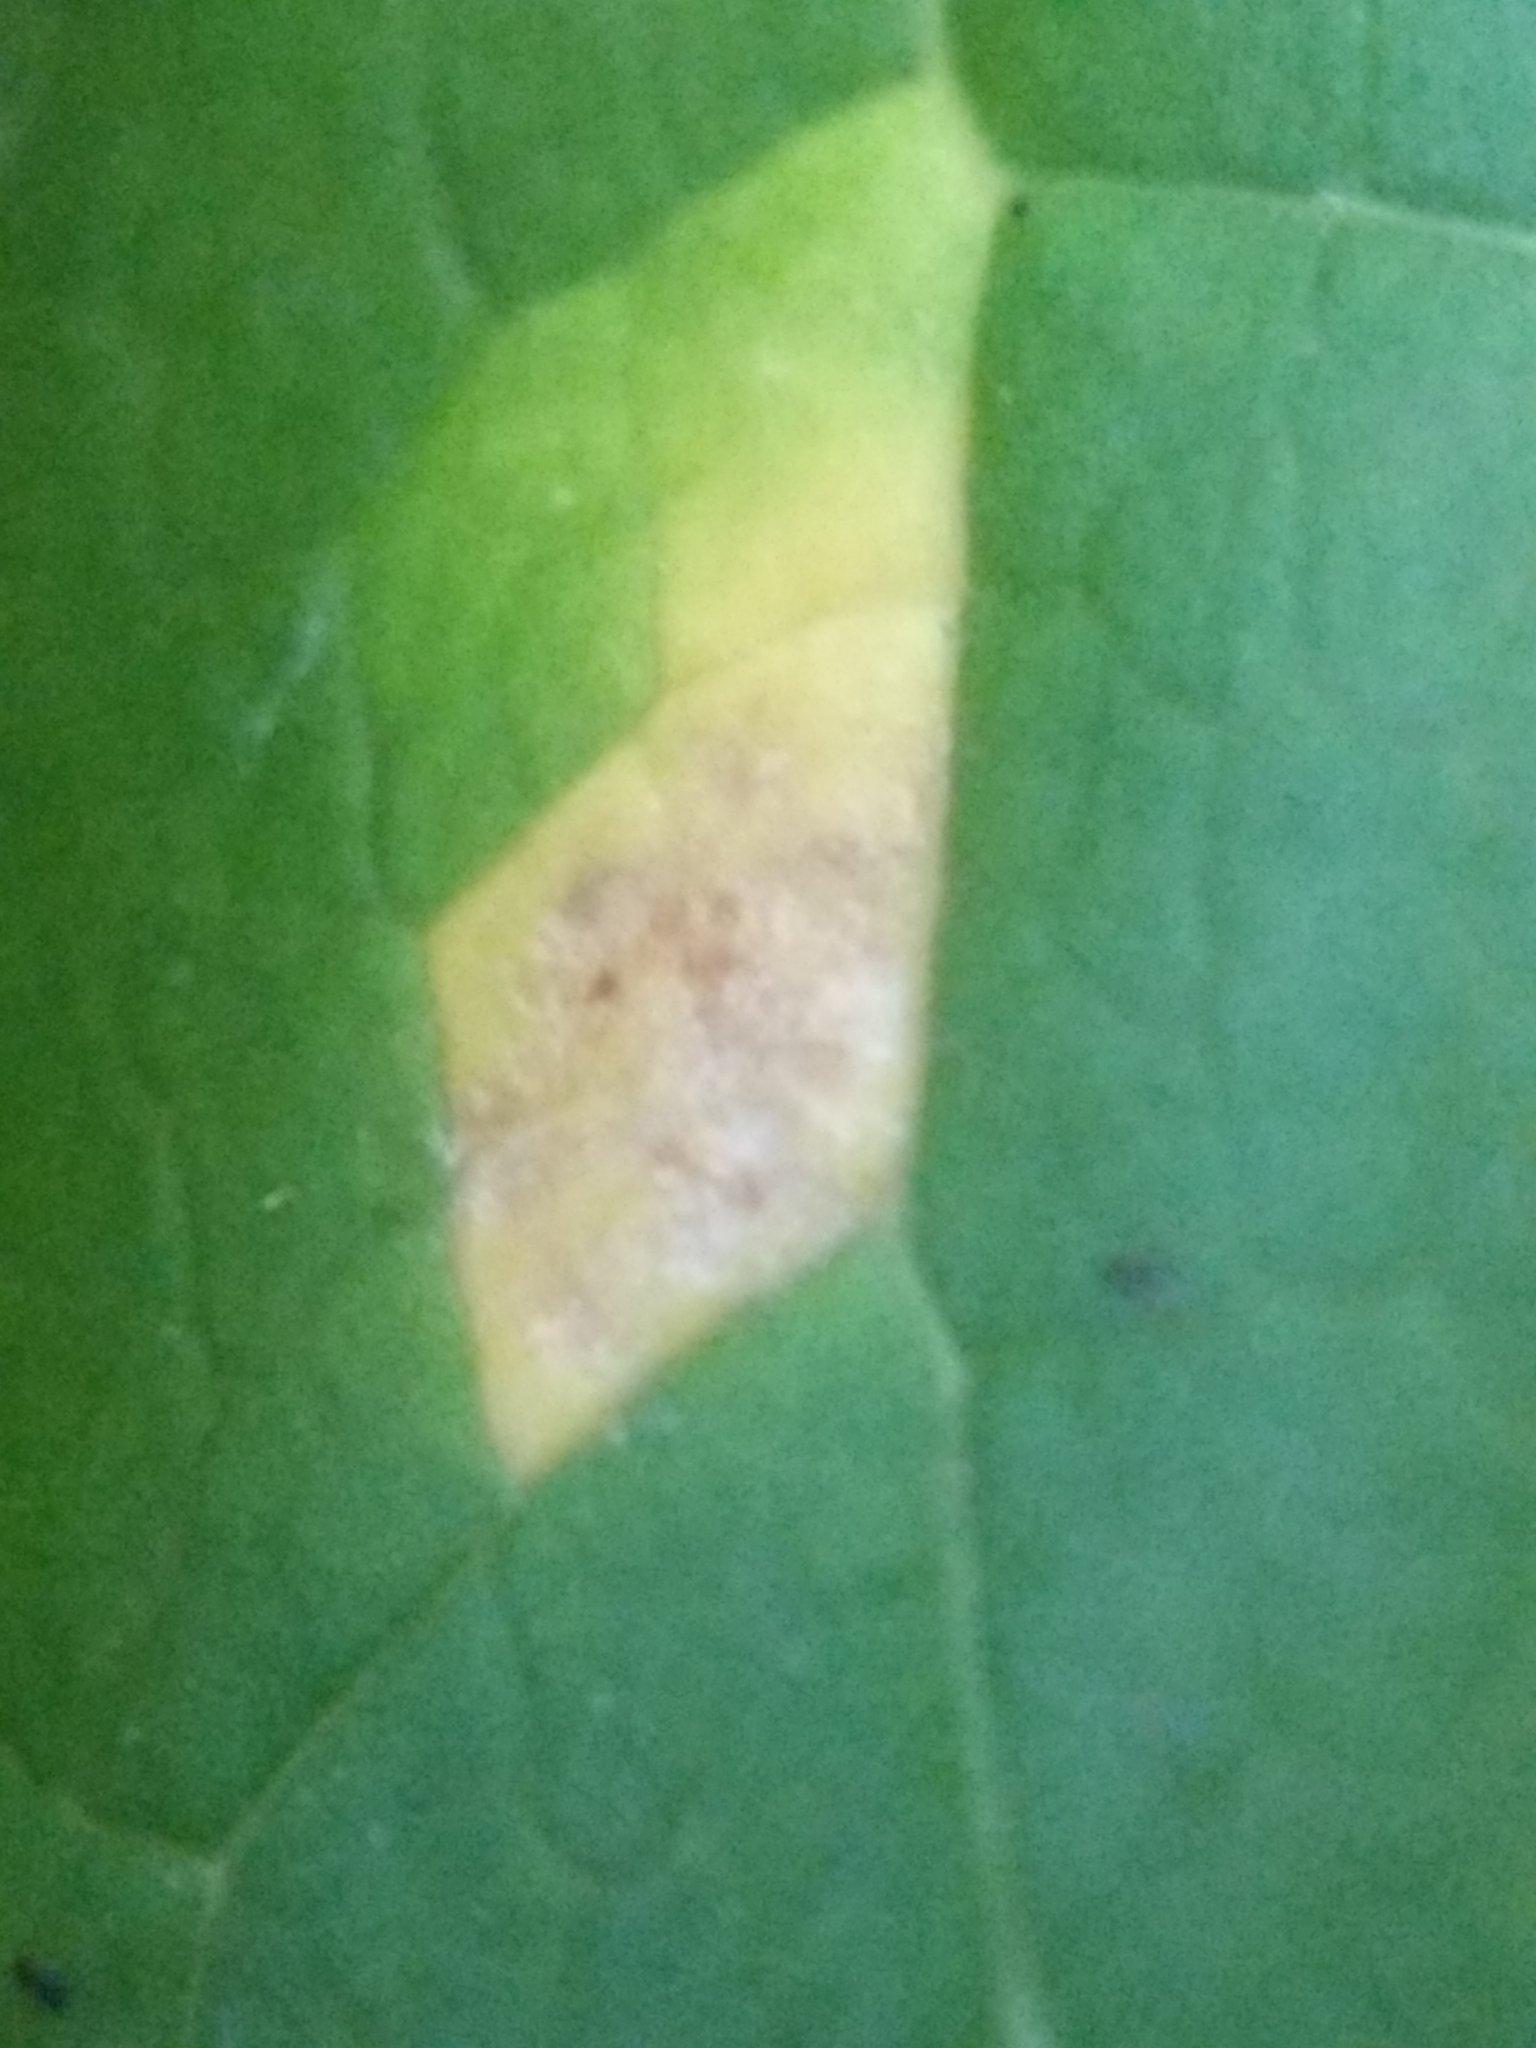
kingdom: Fungi
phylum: Basidiomycota
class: Pucciniomycetes
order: Pucciniales
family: Pucciniaceae
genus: Puccinia
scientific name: Puccinia podophylli
